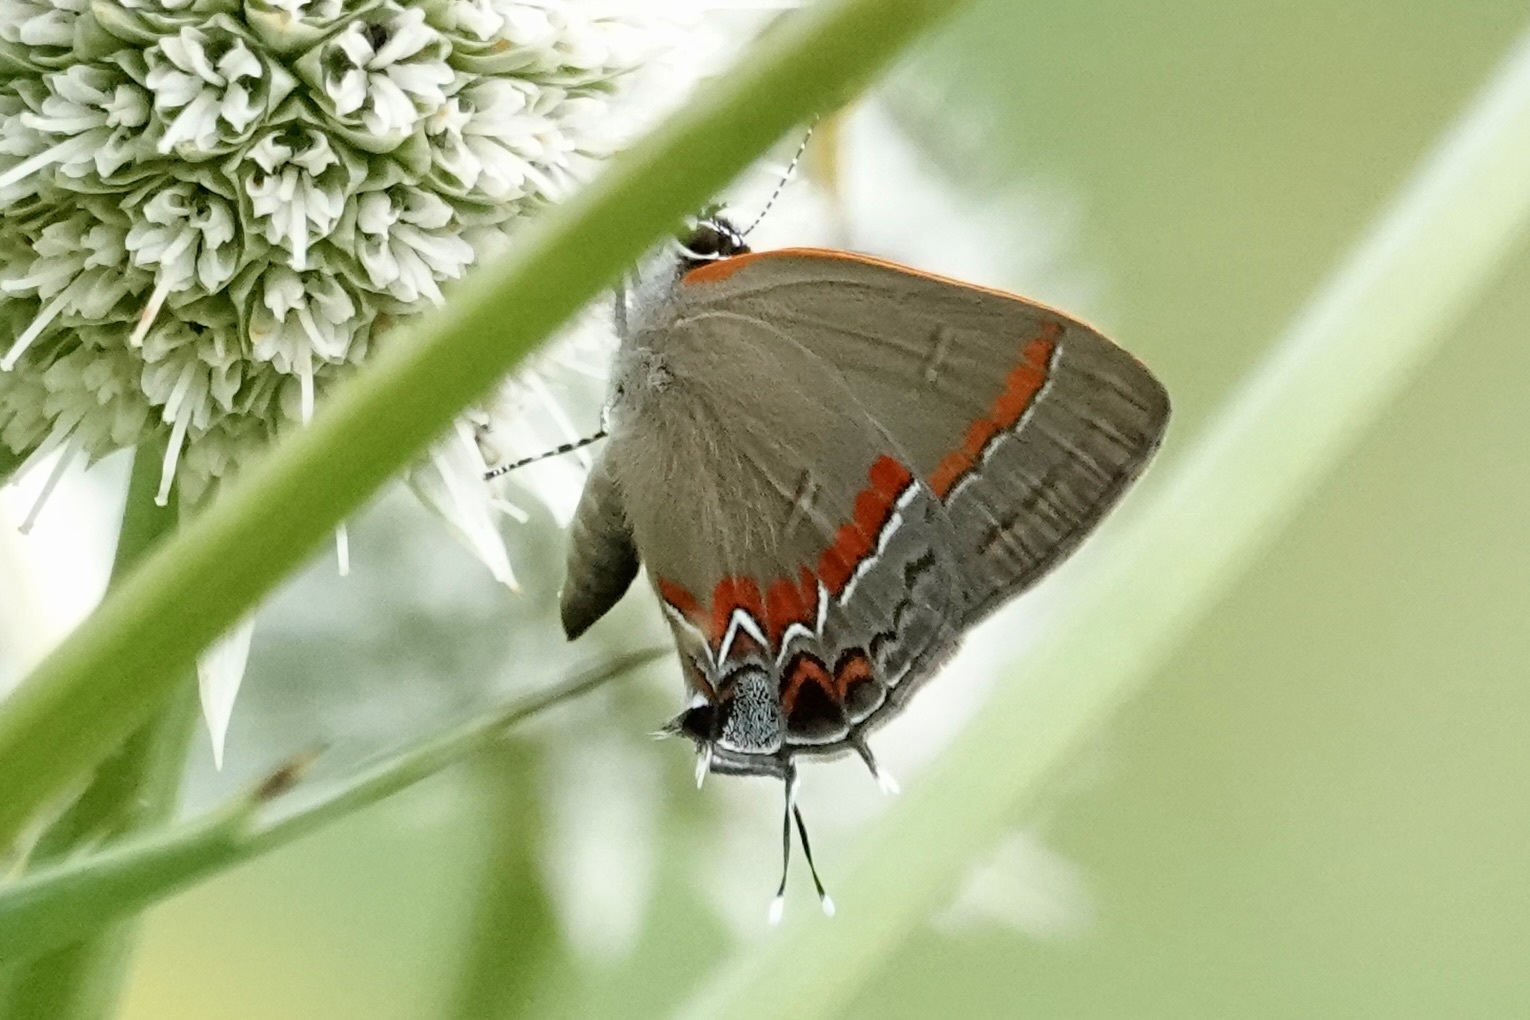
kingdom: Animalia
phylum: Arthropoda
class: Insecta
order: Lepidoptera
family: Lycaenidae
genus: Calycopis
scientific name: Calycopis cecrops
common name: Red-banded hairstreak
